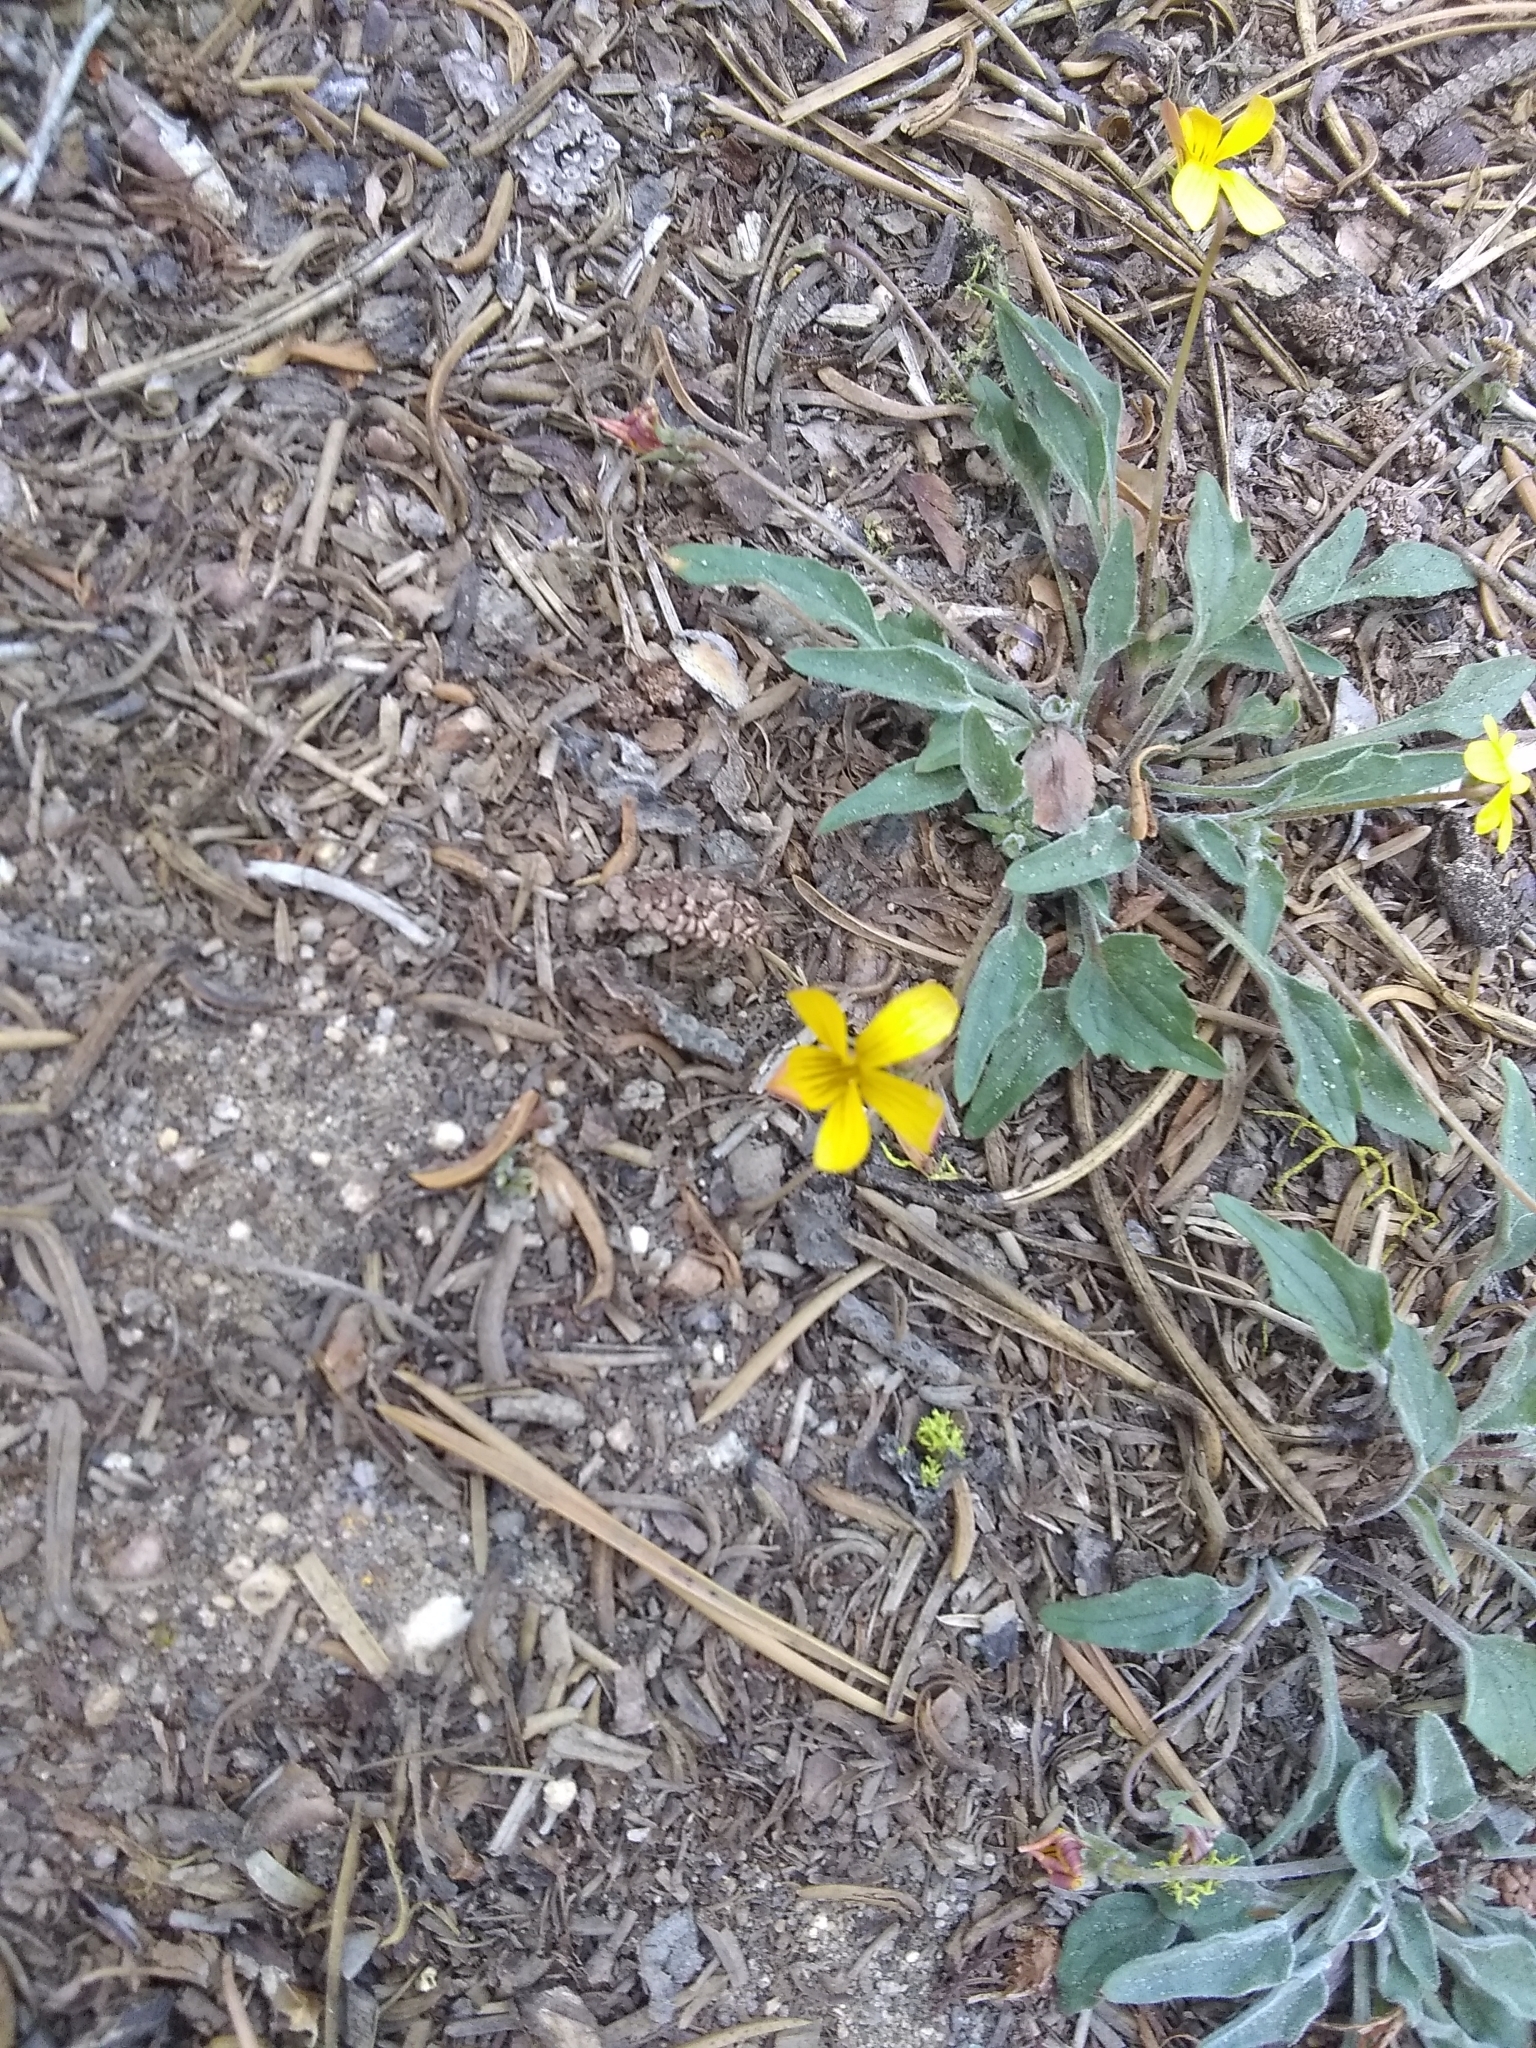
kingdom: Plantae
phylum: Tracheophyta
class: Magnoliopsida
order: Malpighiales
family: Violaceae
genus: Viola
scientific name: Viola pinetorum
